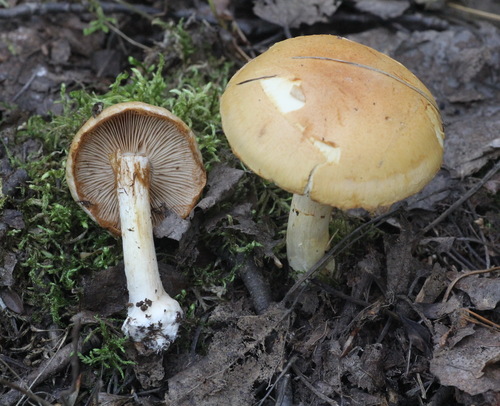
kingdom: Fungi
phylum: Basidiomycota
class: Agaricomycetes
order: Agaricales
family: Cortinariaceae
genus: Thaxterogaster
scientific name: Thaxterogaster talus
